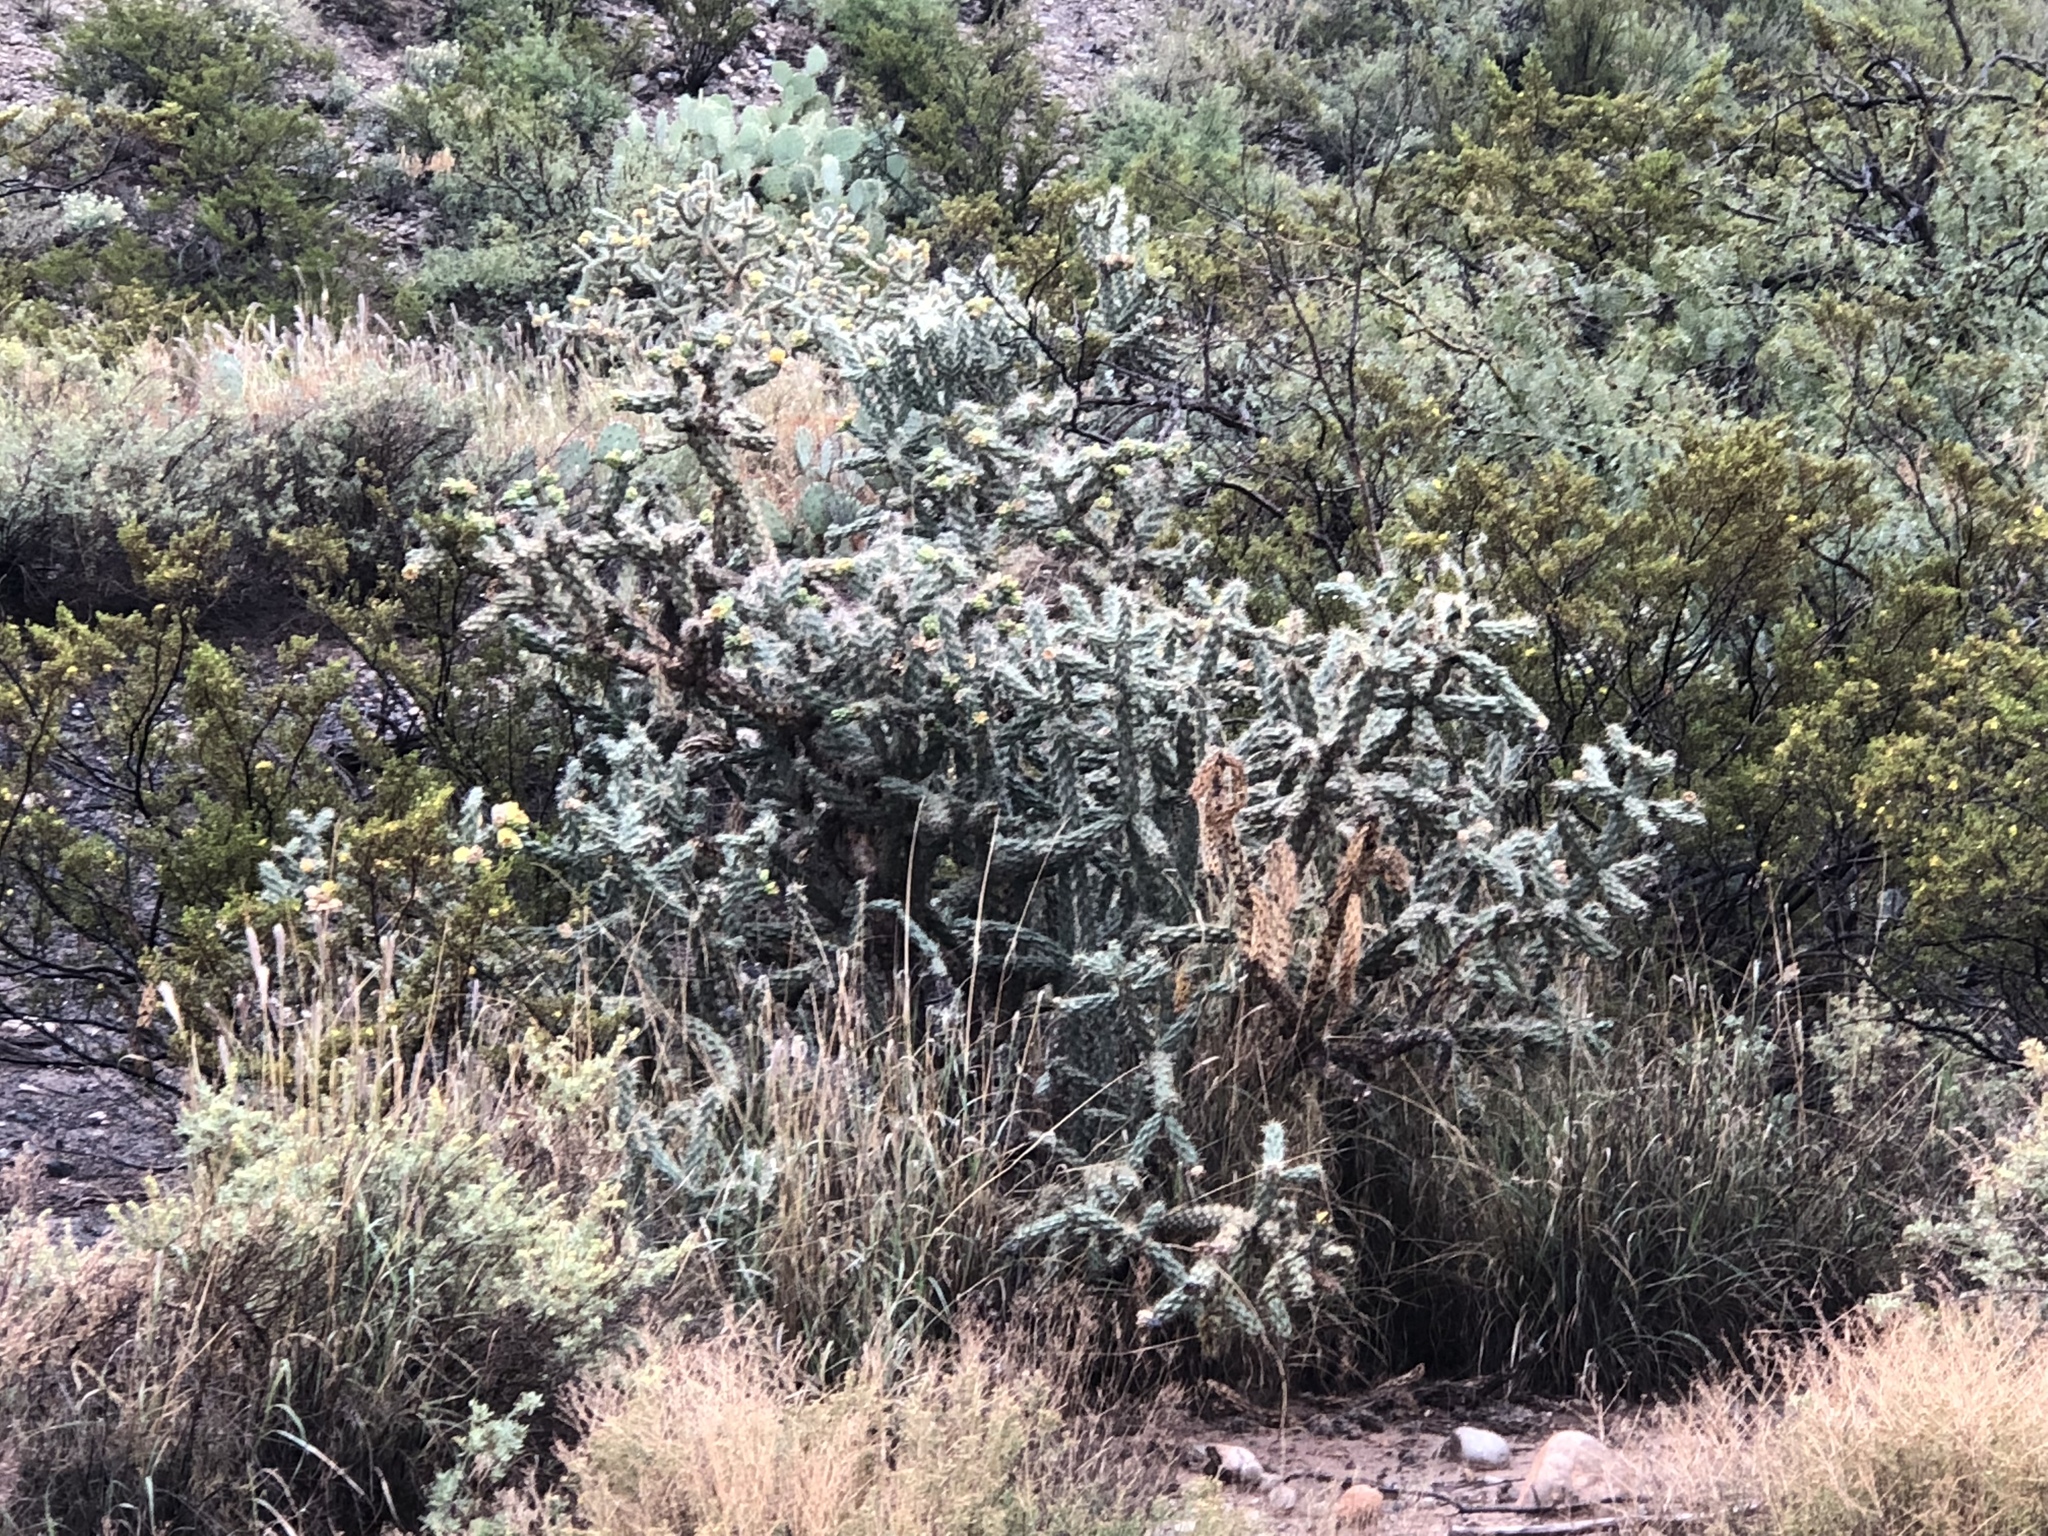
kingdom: Plantae
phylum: Tracheophyta
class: Magnoliopsida
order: Caryophyllales
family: Cactaceae
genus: Cylindropuntia
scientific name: Cylindropuntia imbricata
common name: Candelabrum cactus
